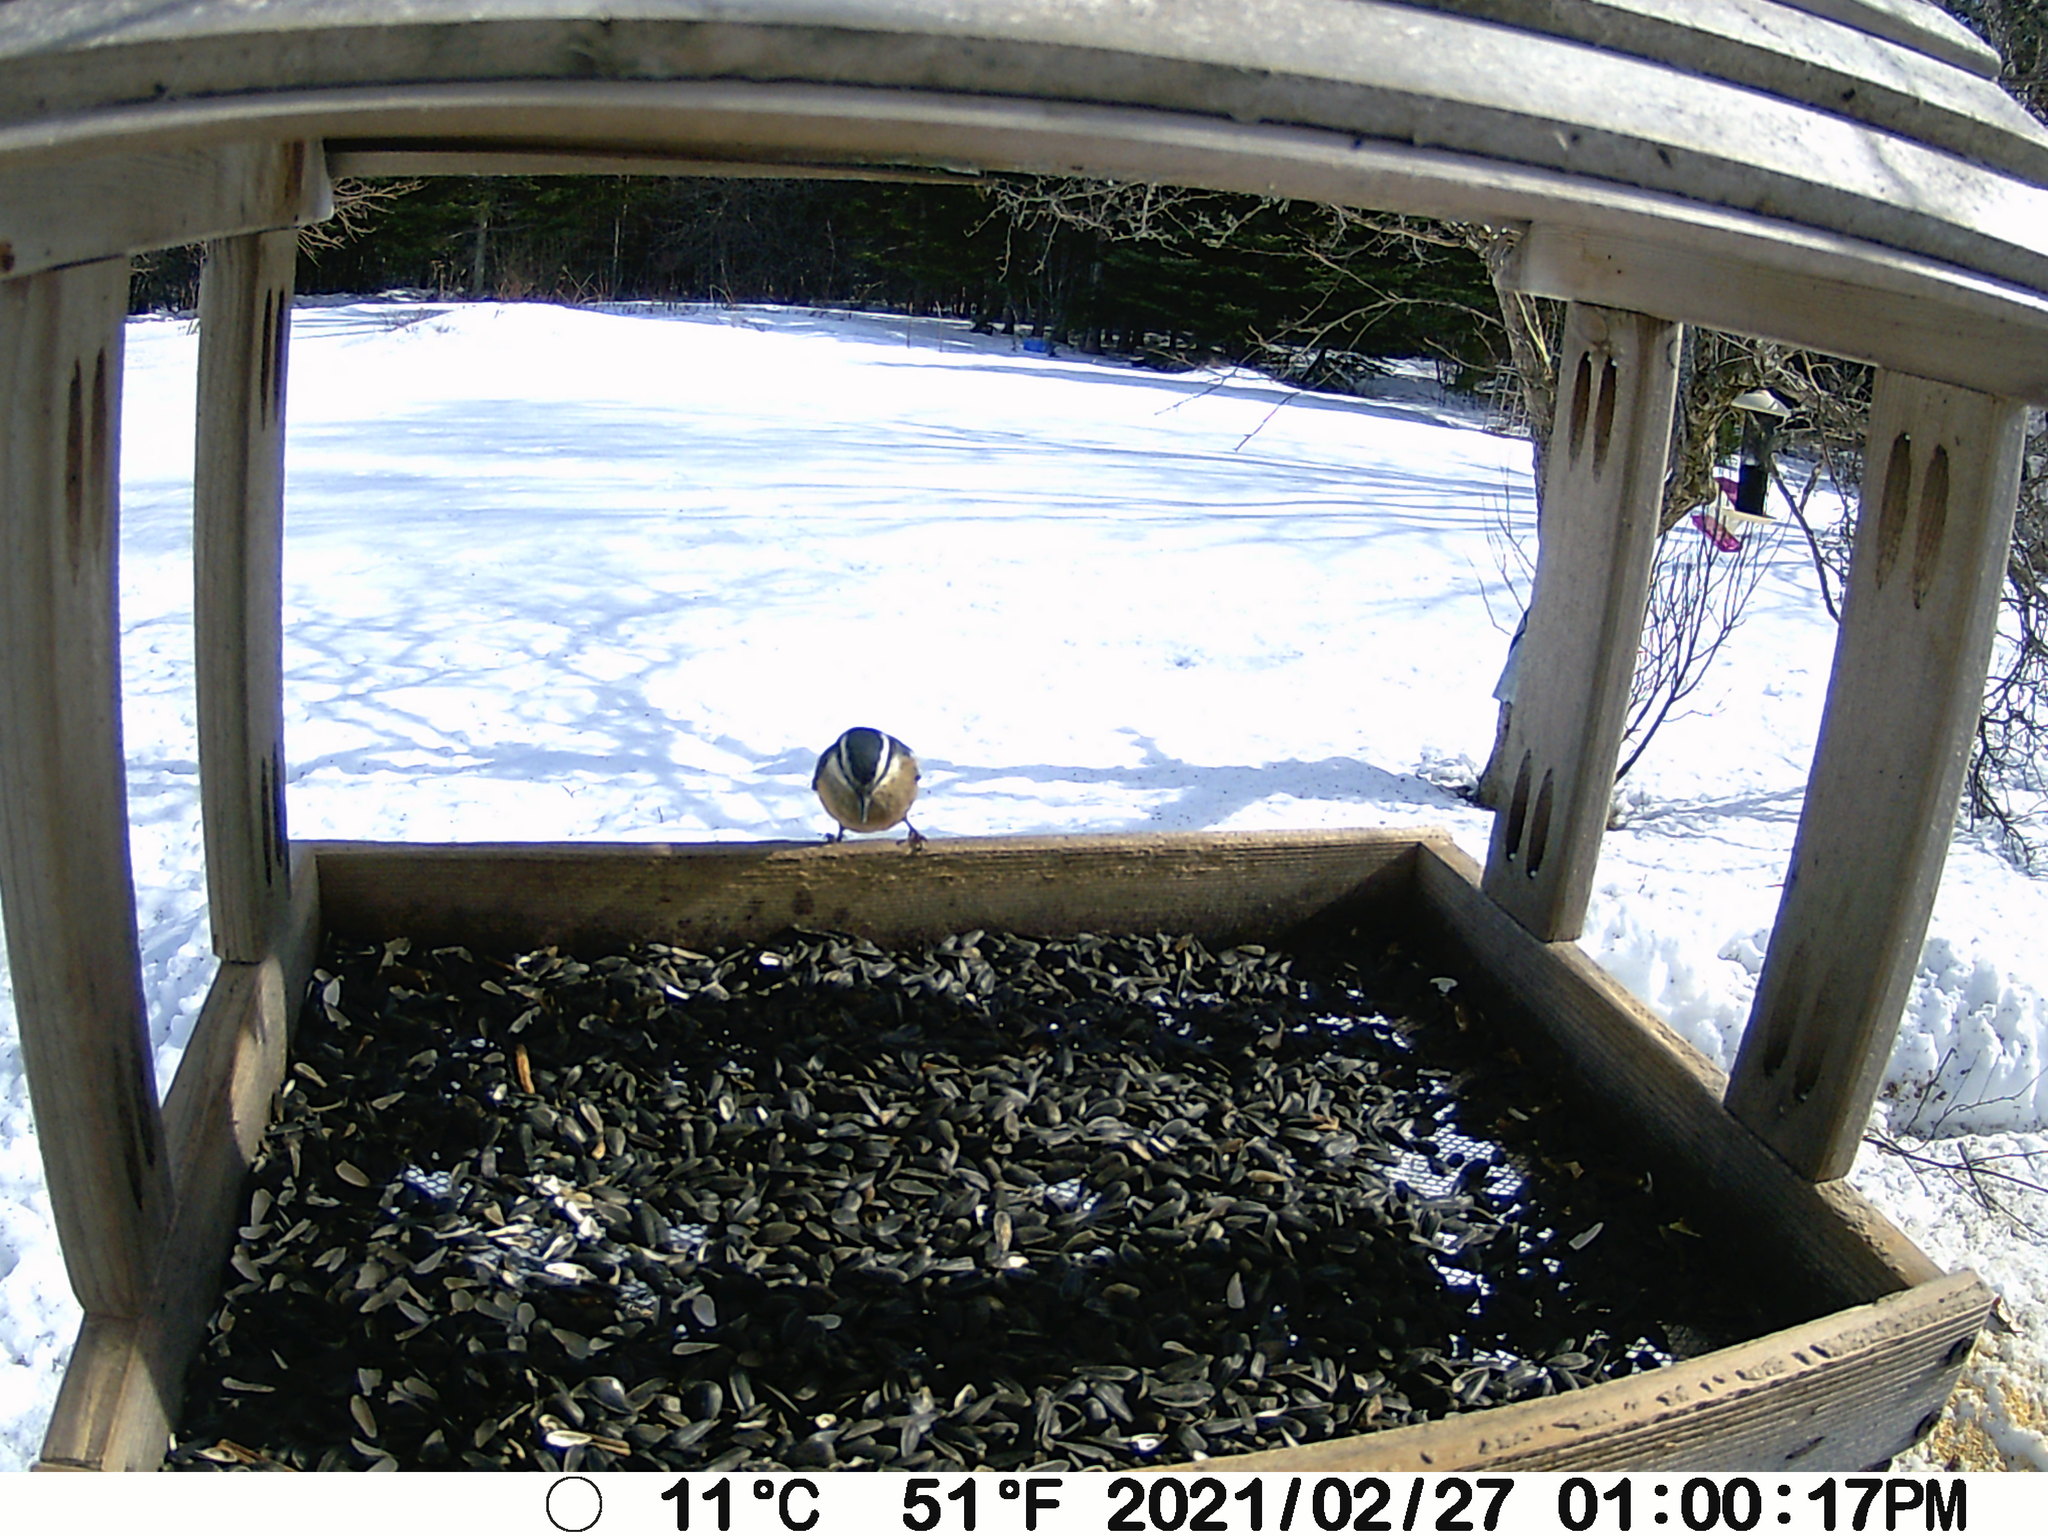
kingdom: Animalia
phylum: Chordata
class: Aves
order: Passeriformes
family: Sittidae
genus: Sitta
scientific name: Sitta canadensis
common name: Red-breasted nuthatch
